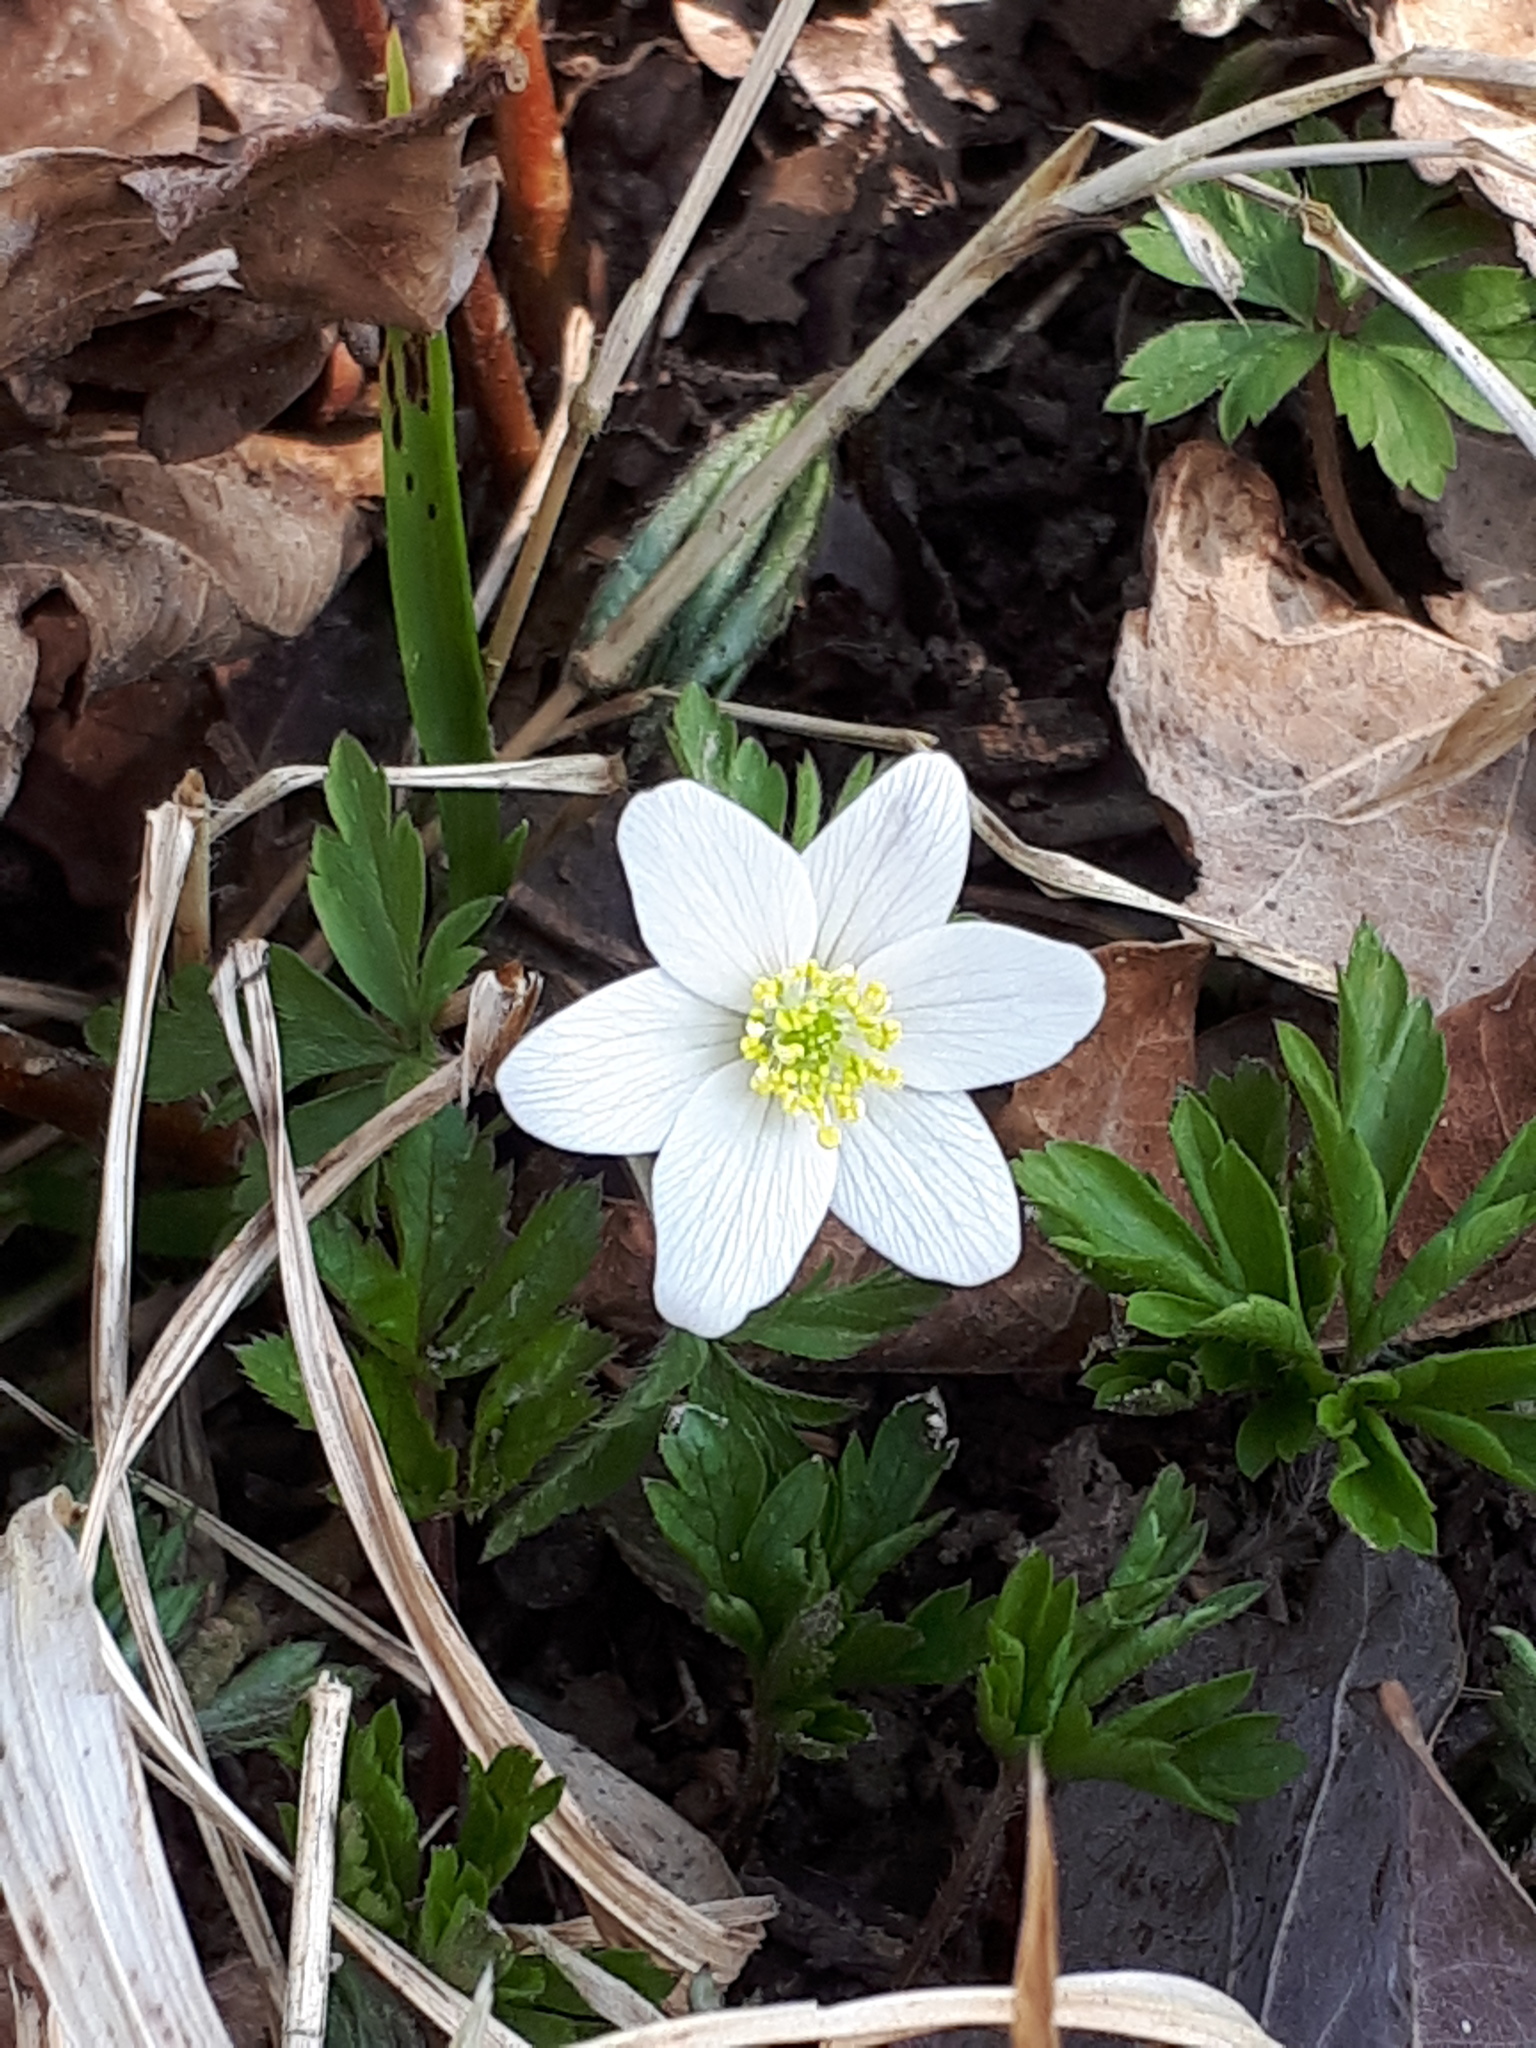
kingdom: Plantae
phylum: Tracheophyta
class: Magnoliopsida
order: Ranunculales
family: Ranunculaceae
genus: Anemone
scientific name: Anemone nemorosa
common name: Wood anemone
